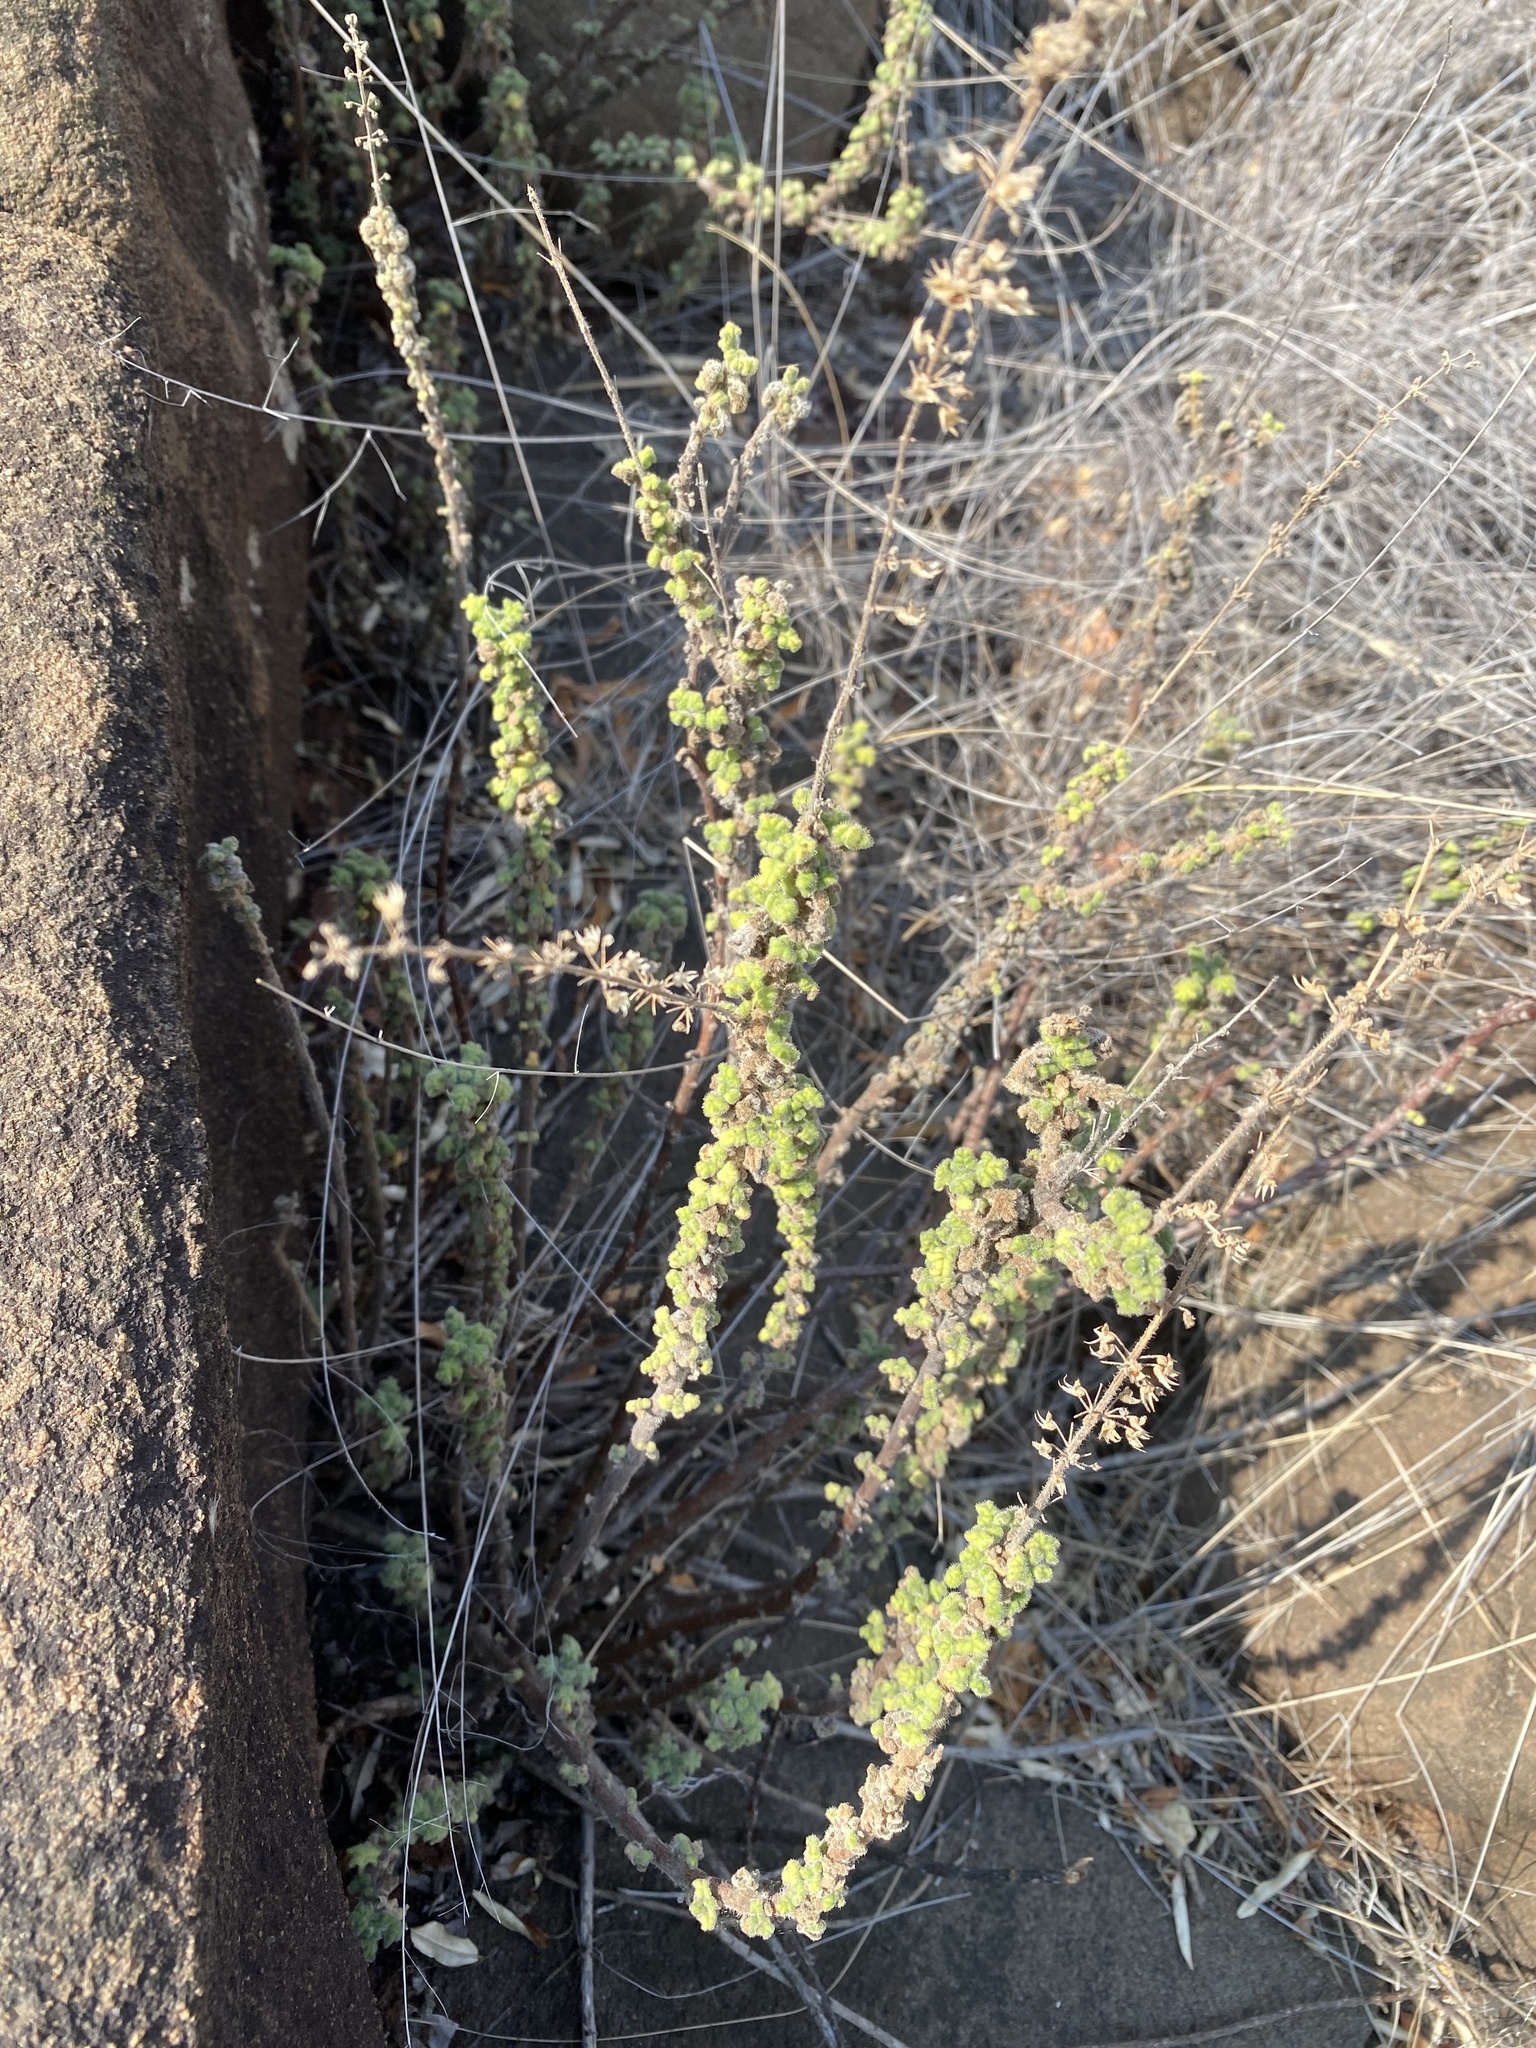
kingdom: Plantae
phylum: Tracheophyta
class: Magnoliopsida
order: Lamiales
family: Lamiaceae
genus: Coleus
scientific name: Coleus venteri
